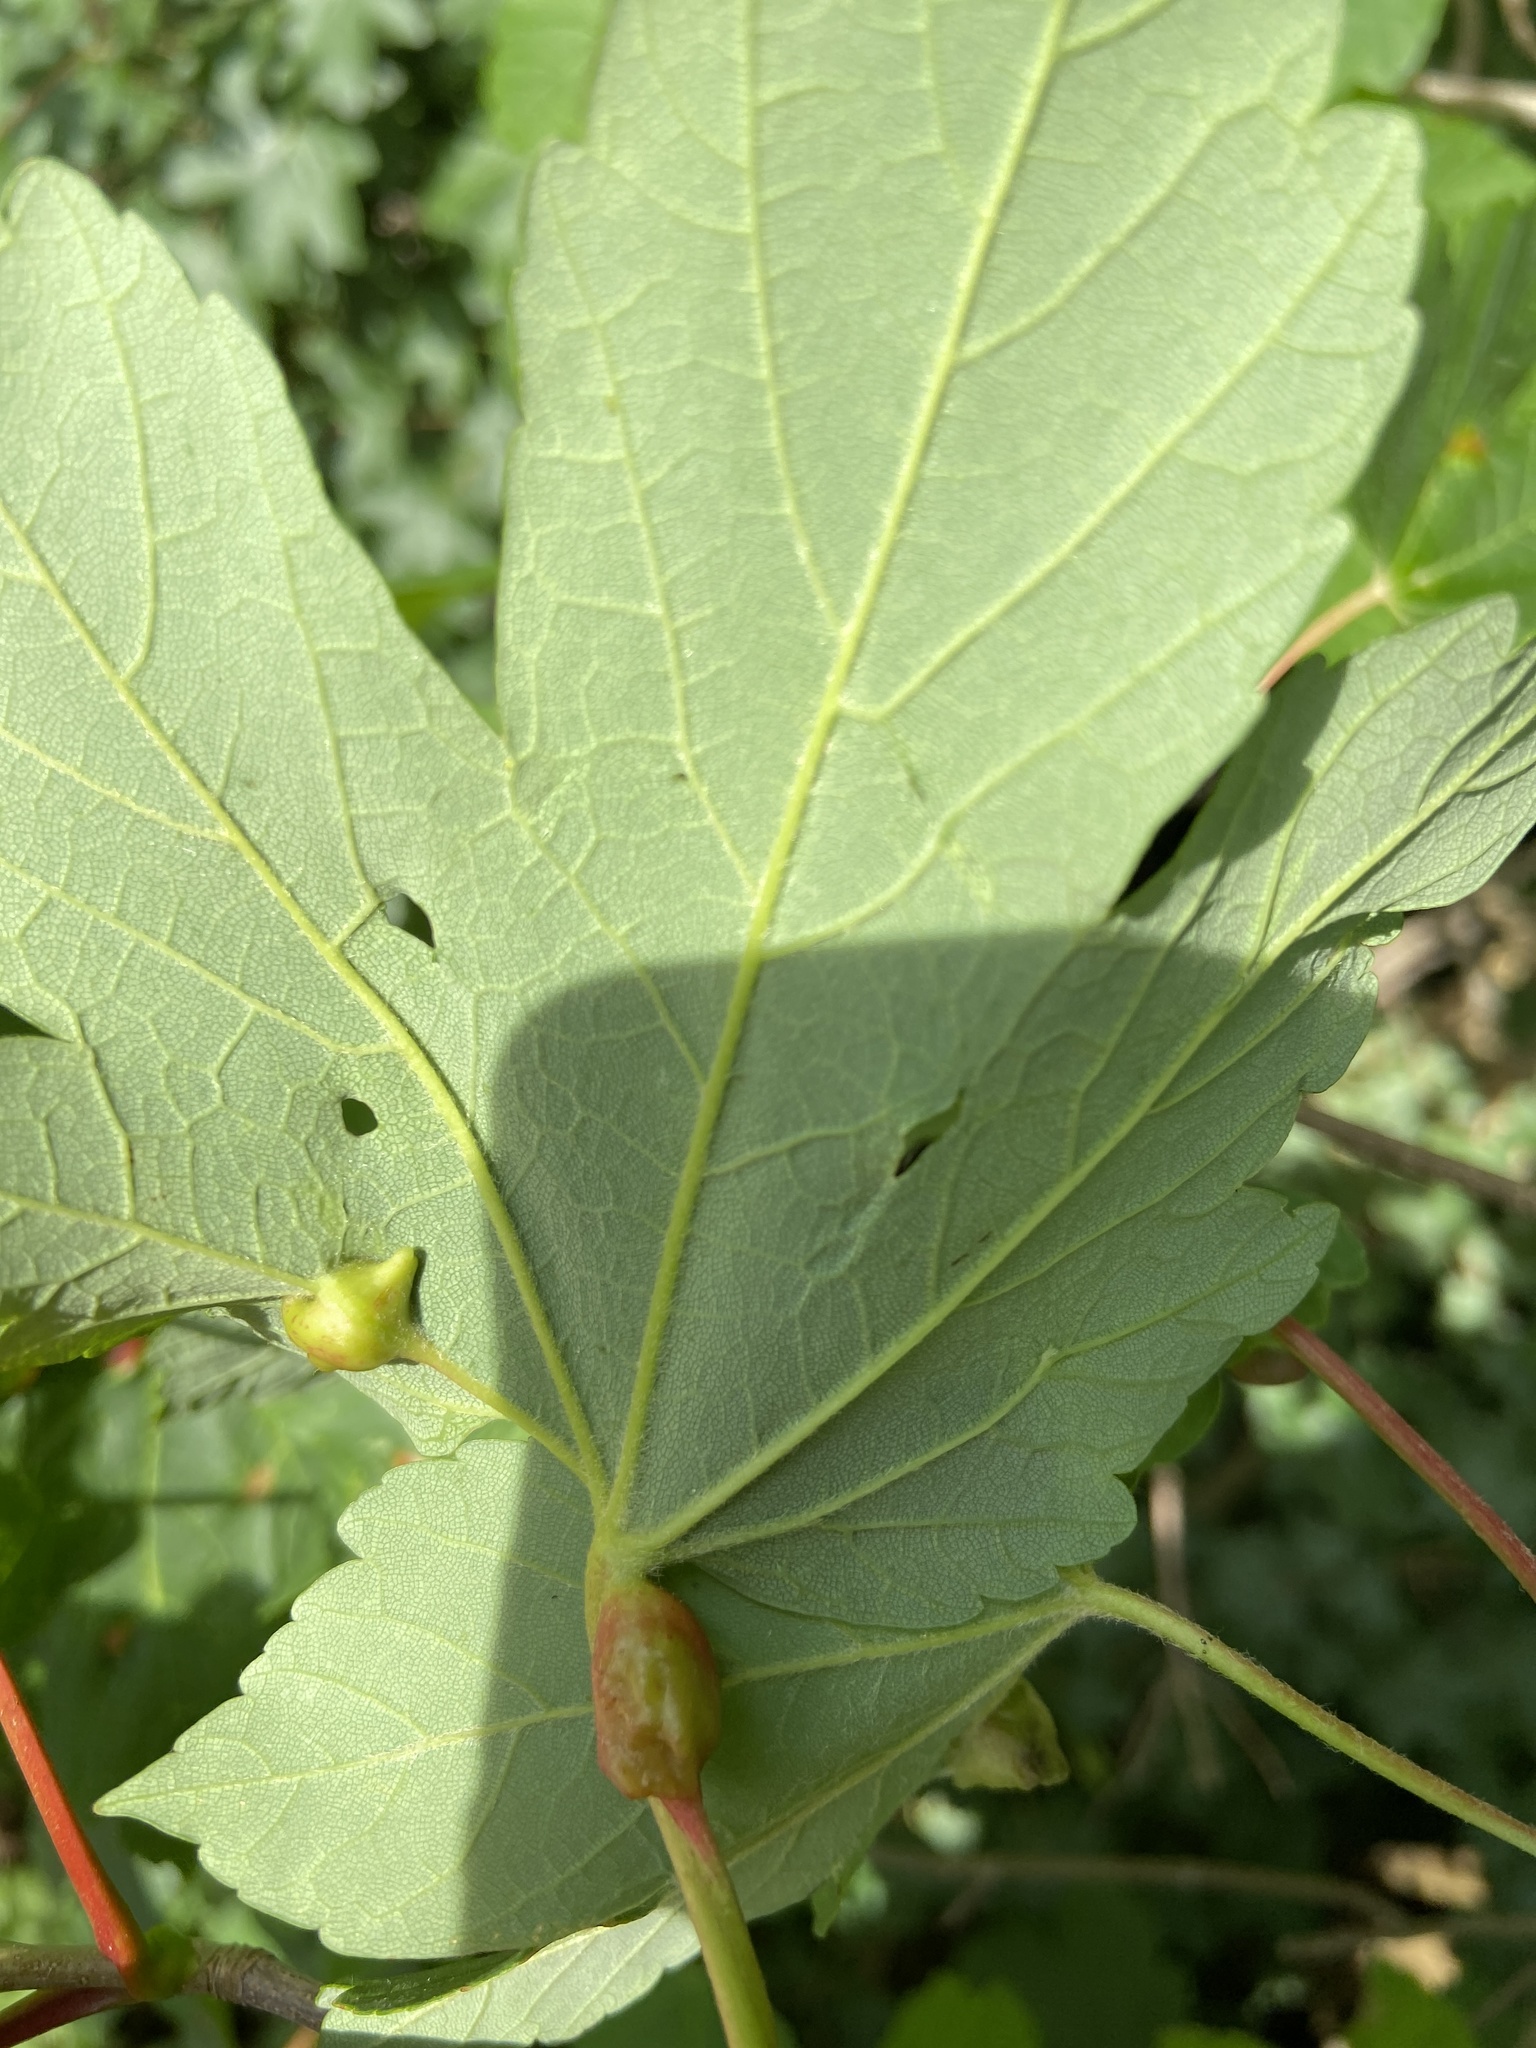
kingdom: Animalia
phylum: Arthropoda
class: Insecta
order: Hymenoptera
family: Eulophidae
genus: Dichatomus
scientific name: Dichatomus acerinus
